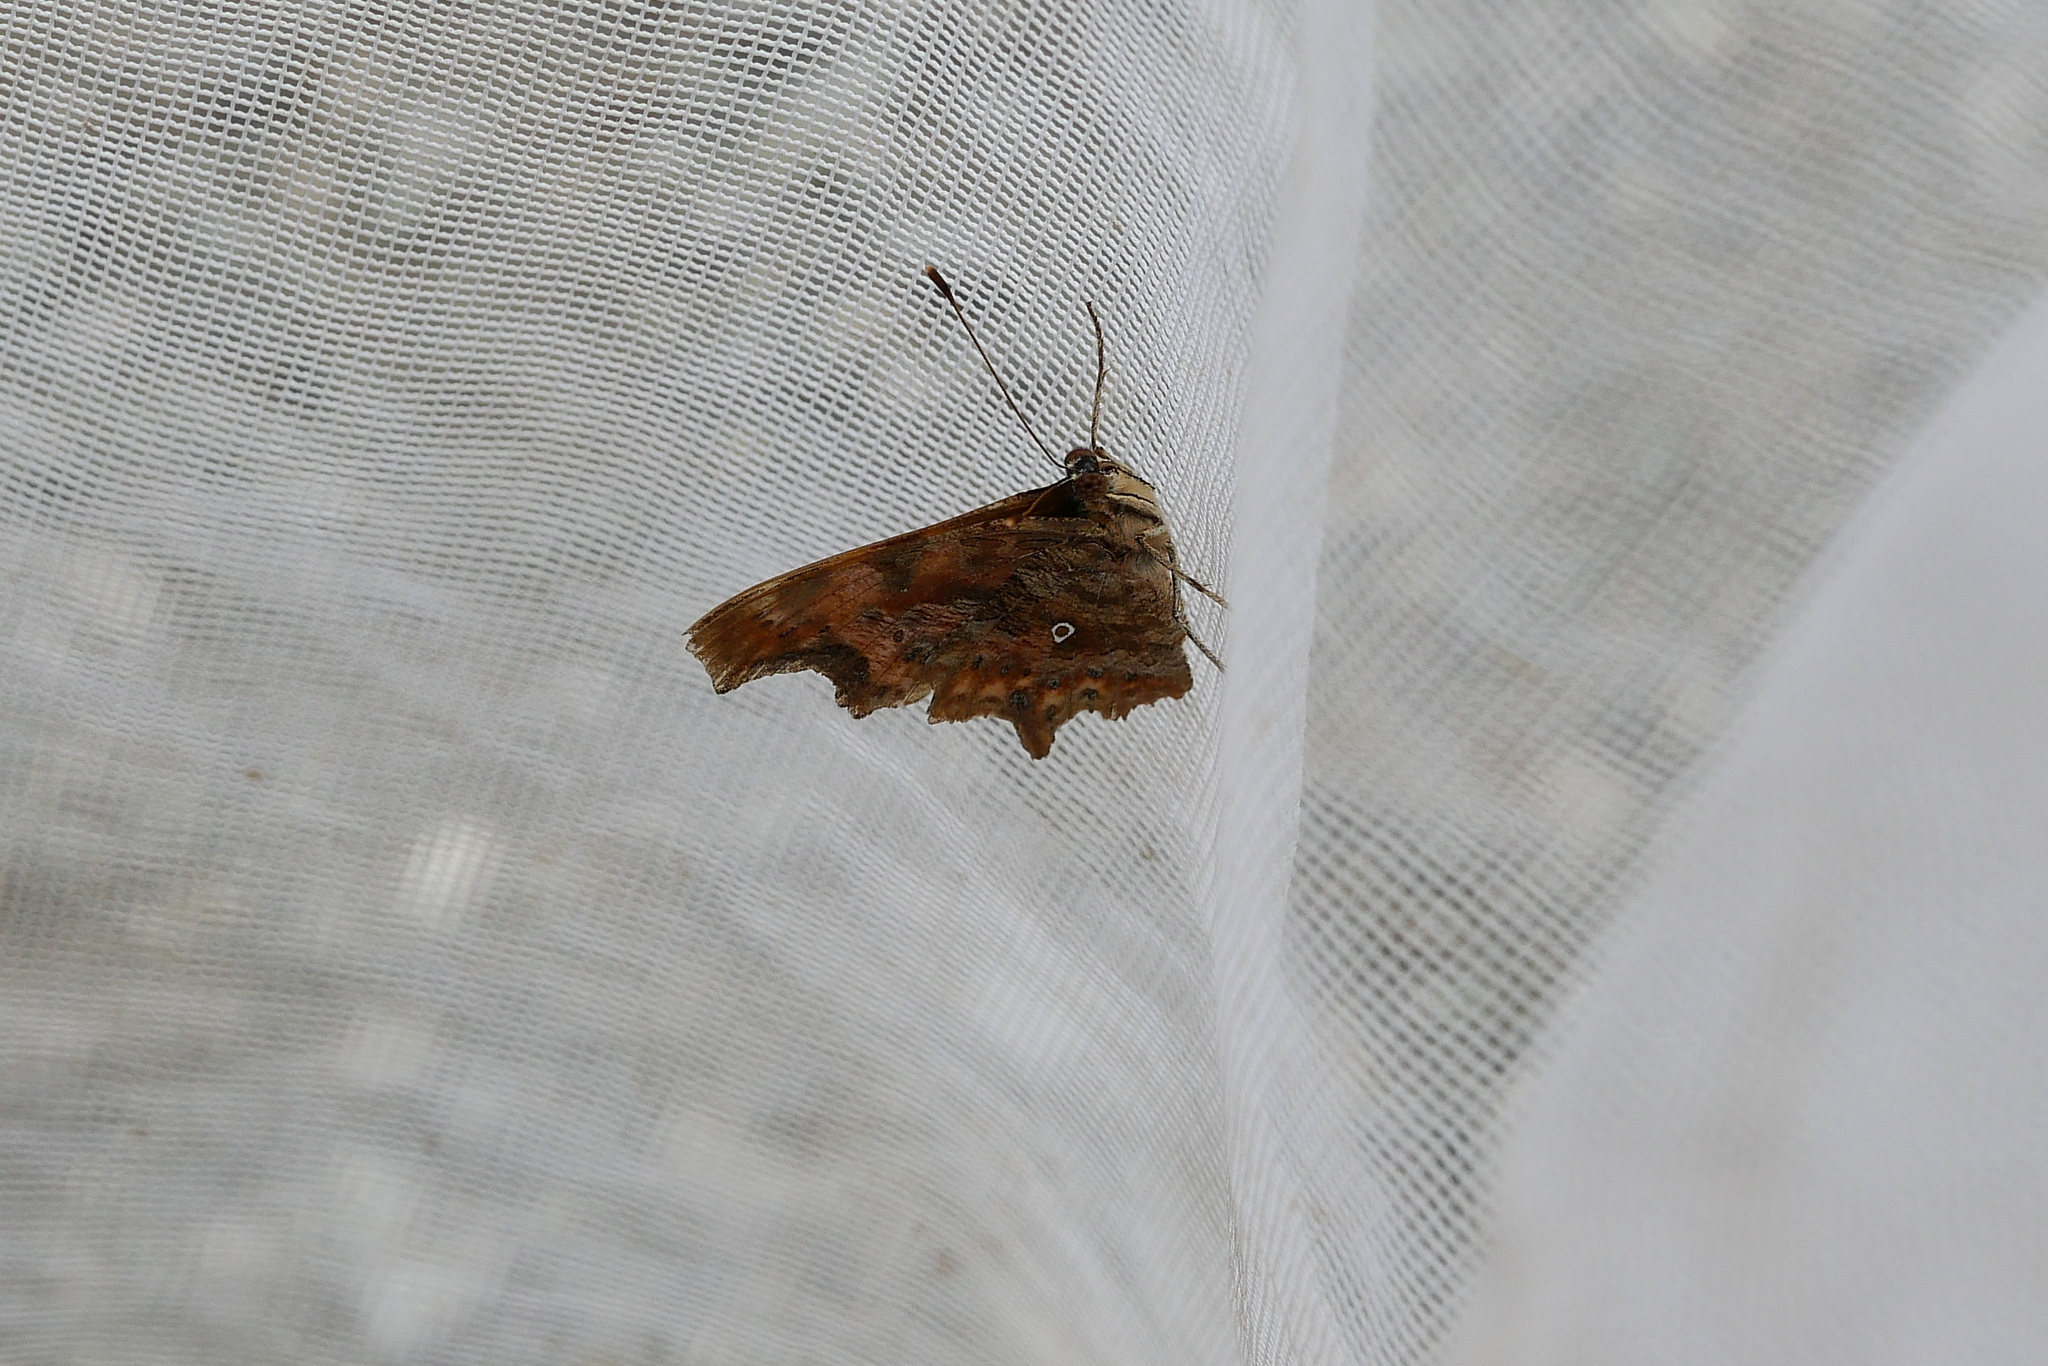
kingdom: Animalia
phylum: Arthropoda
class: Insecta
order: Lepidoptera
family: Nymphalidae
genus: Polygonia
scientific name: Polygonia c-album
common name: Comma
